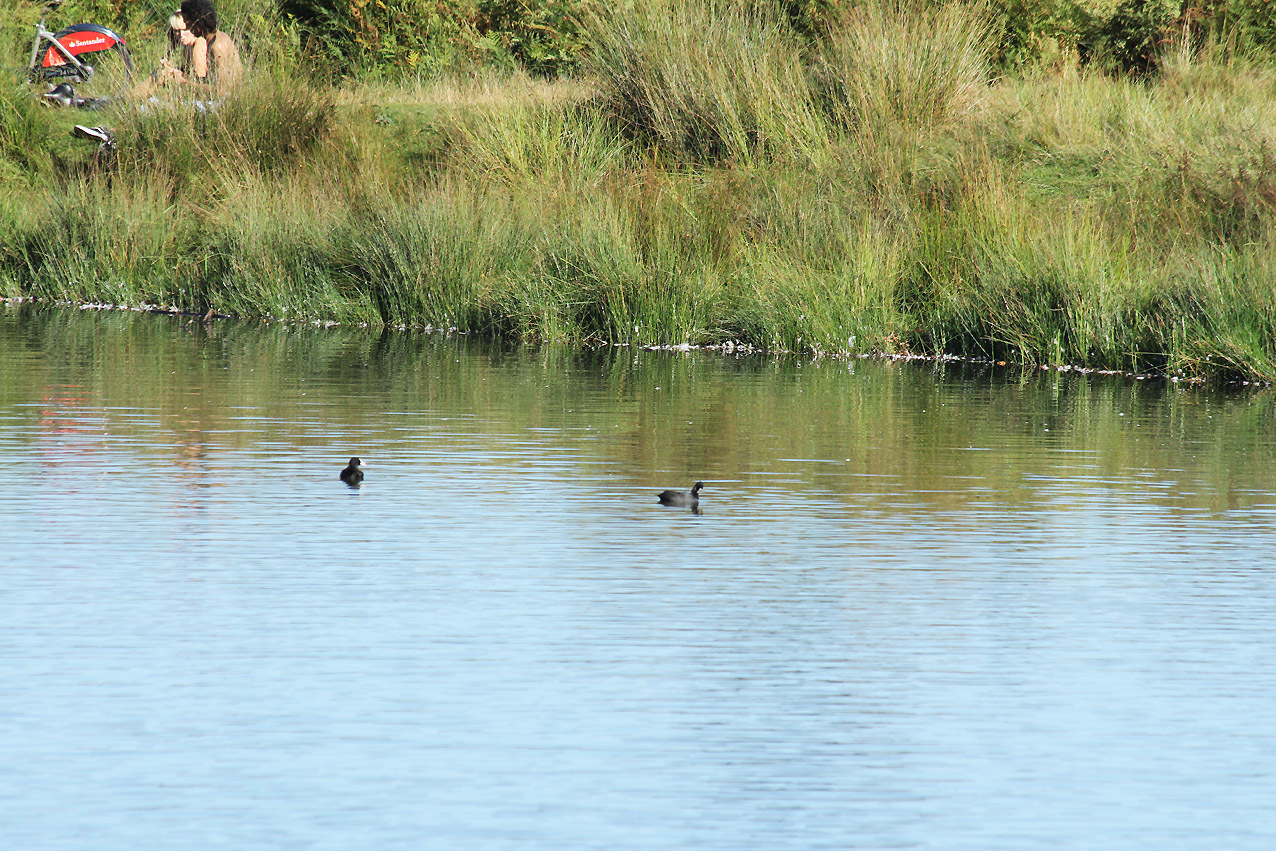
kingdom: Animalia
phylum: Chordata
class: Aves
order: Gruiformes
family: Rallidae
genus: Fulica
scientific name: Fulica atra
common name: Eurasian coot
